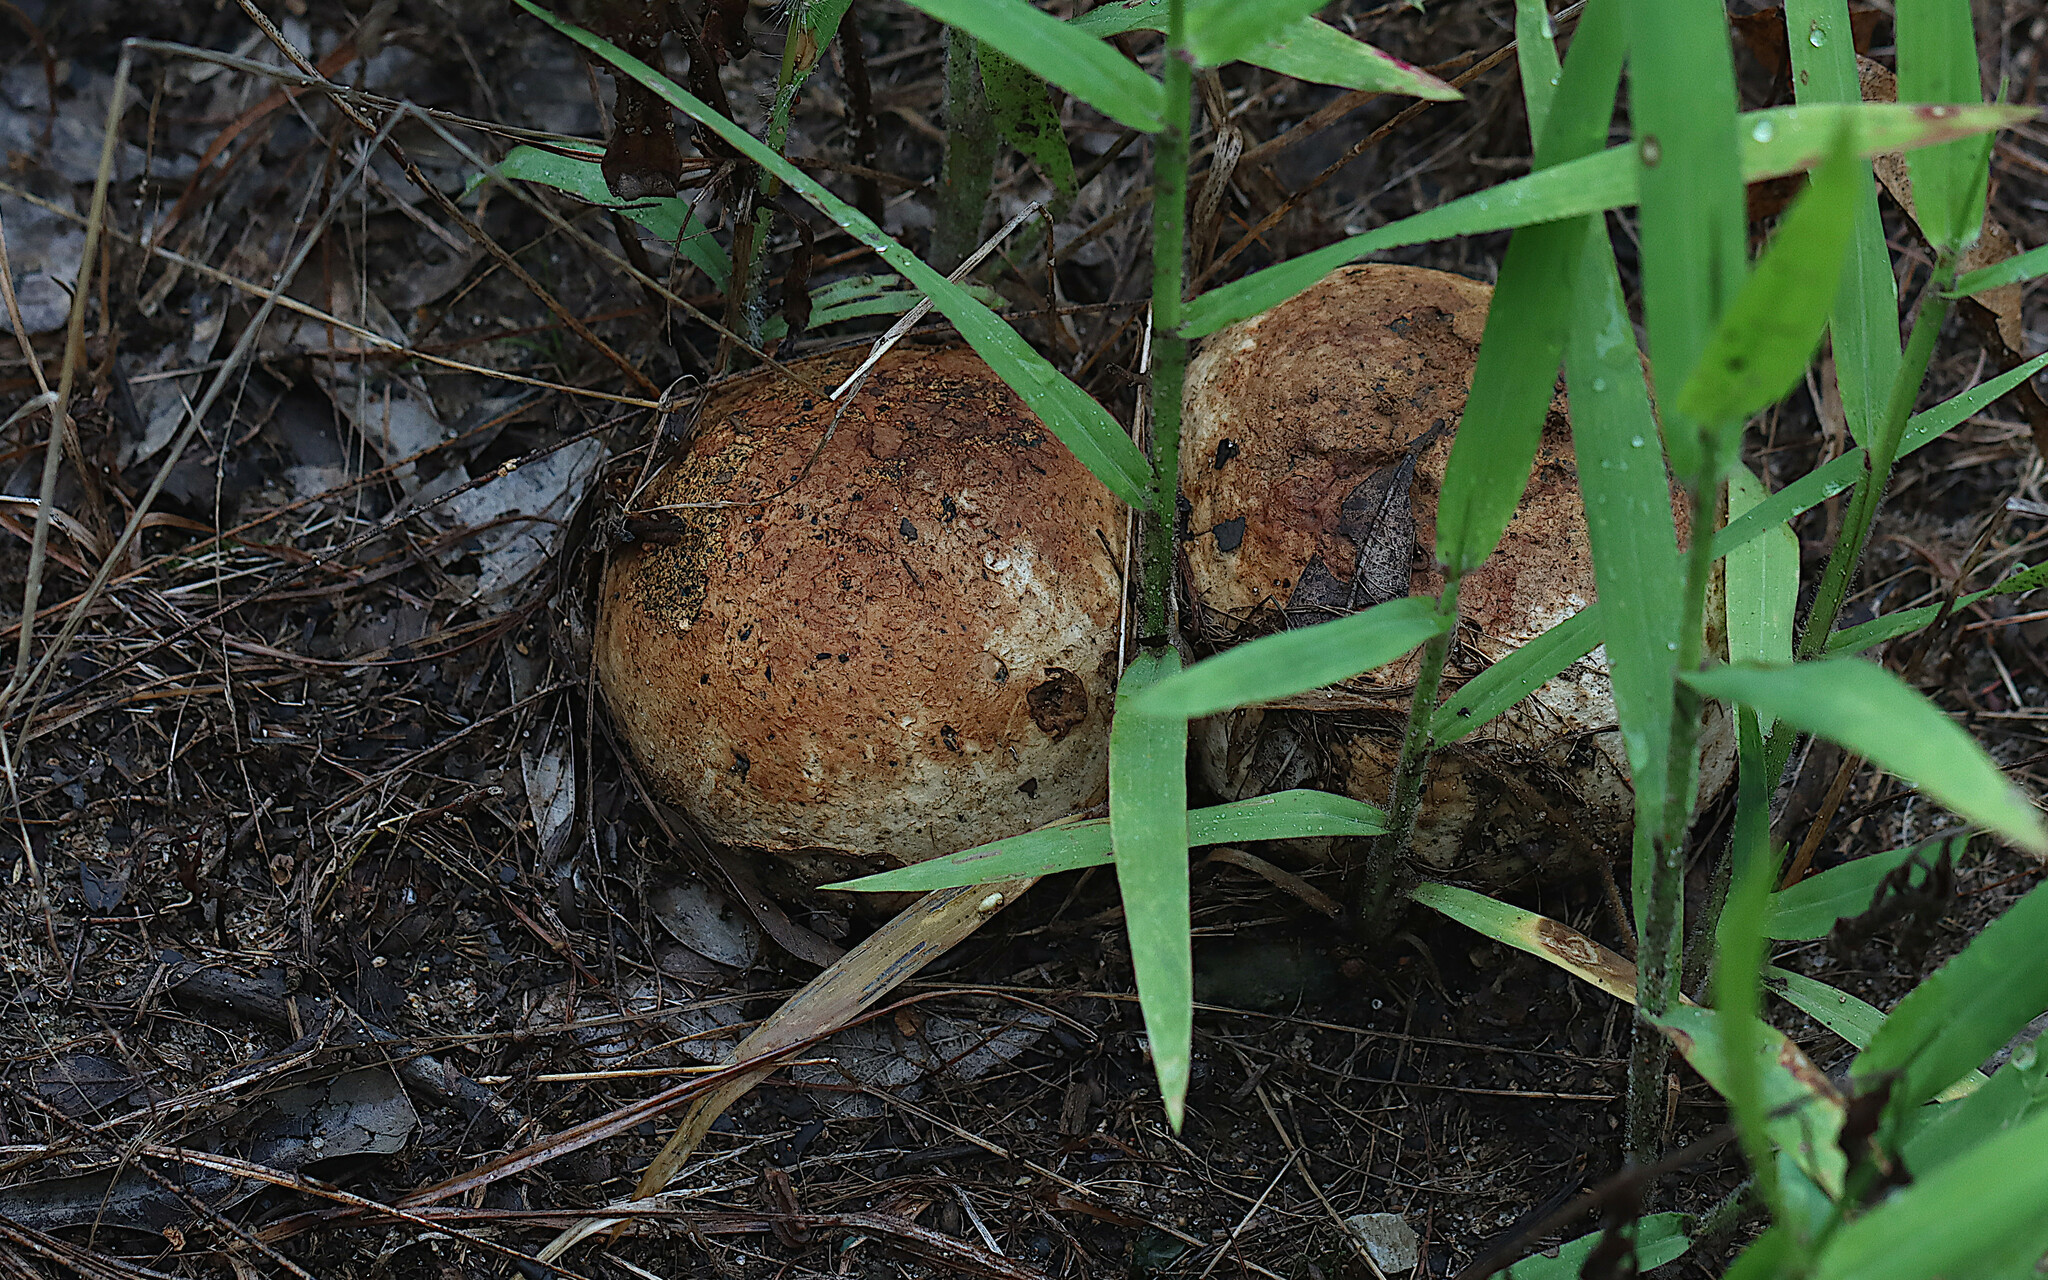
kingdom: Fungi
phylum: Basidiomycota
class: Agaricomycetes
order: Boletales
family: Sclerodermataceae
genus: Pisolithus
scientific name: Pisolithus arenarius
